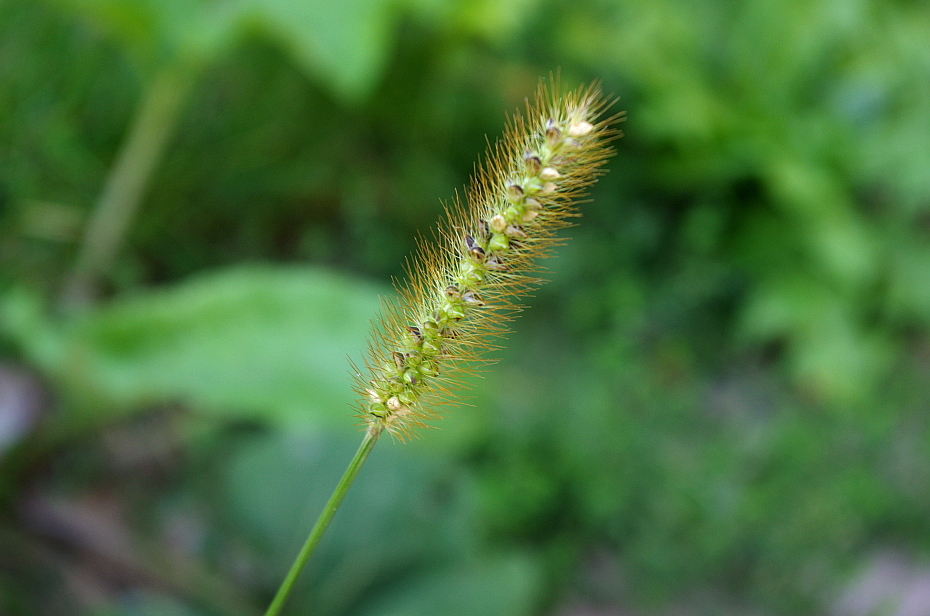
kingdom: Plantae
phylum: Tracheophyta
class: Liliopsida
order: Poales
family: Poaceae
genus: Setaria
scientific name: Setaria pumila
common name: Yellow bristle-grass
